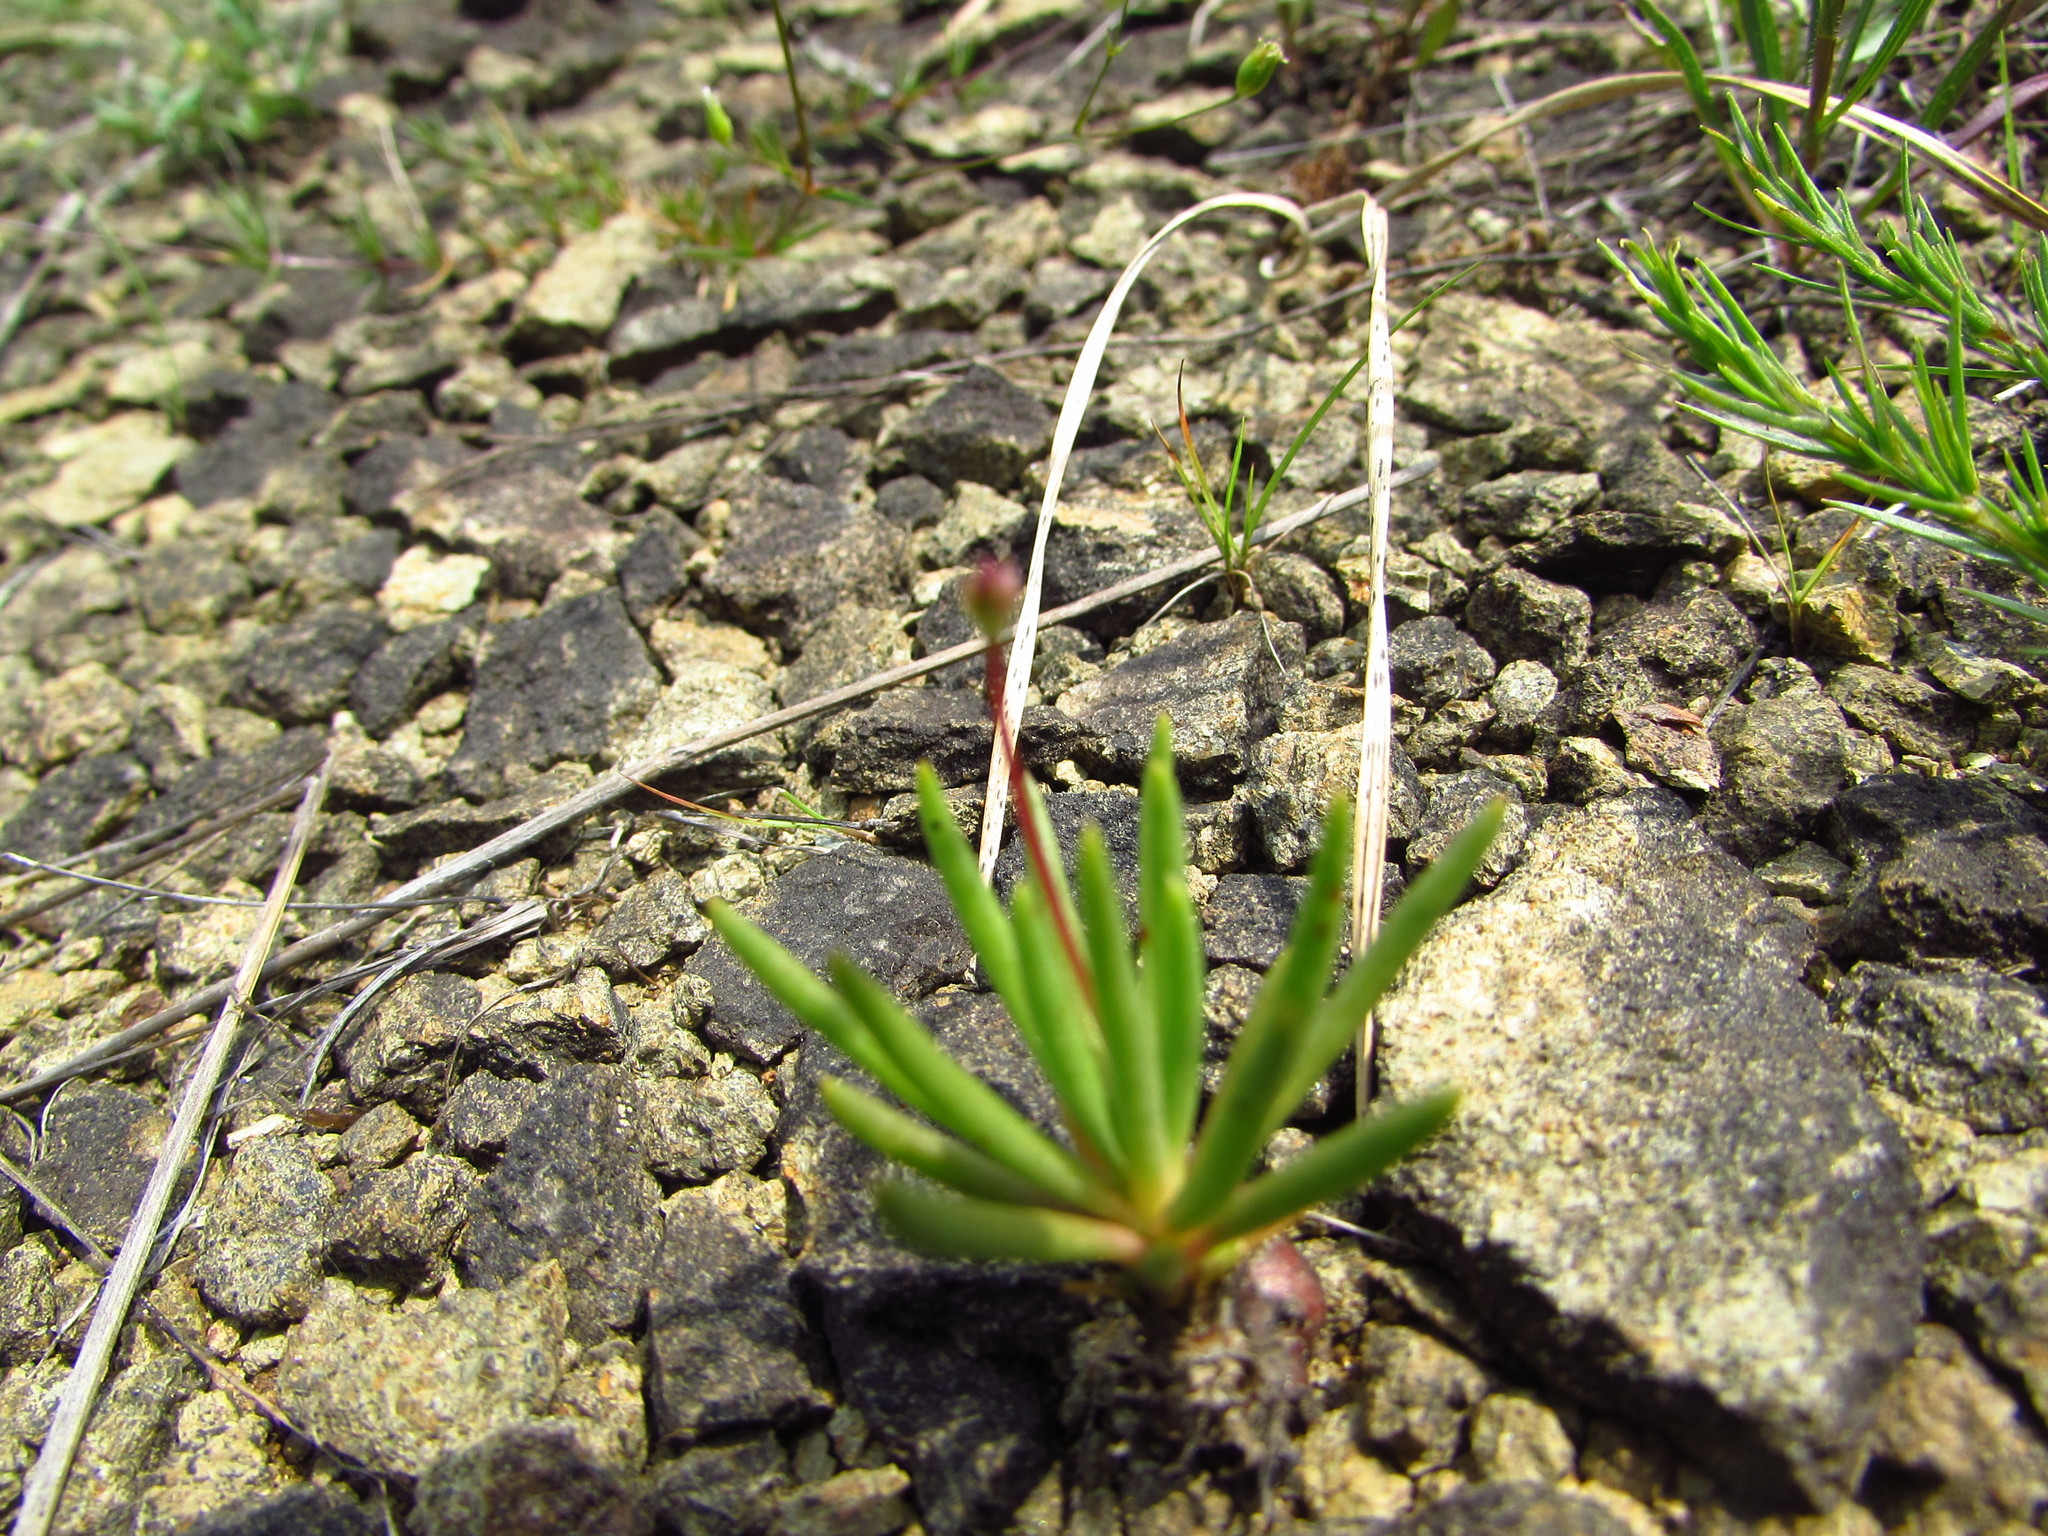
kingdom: Plantae
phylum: Tracheophyta
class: Magnoliopsida
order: Caryophyllales
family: Montiaceae
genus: Phemeranthus
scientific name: Phemeranthus teretifolius
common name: Quill fameflower
